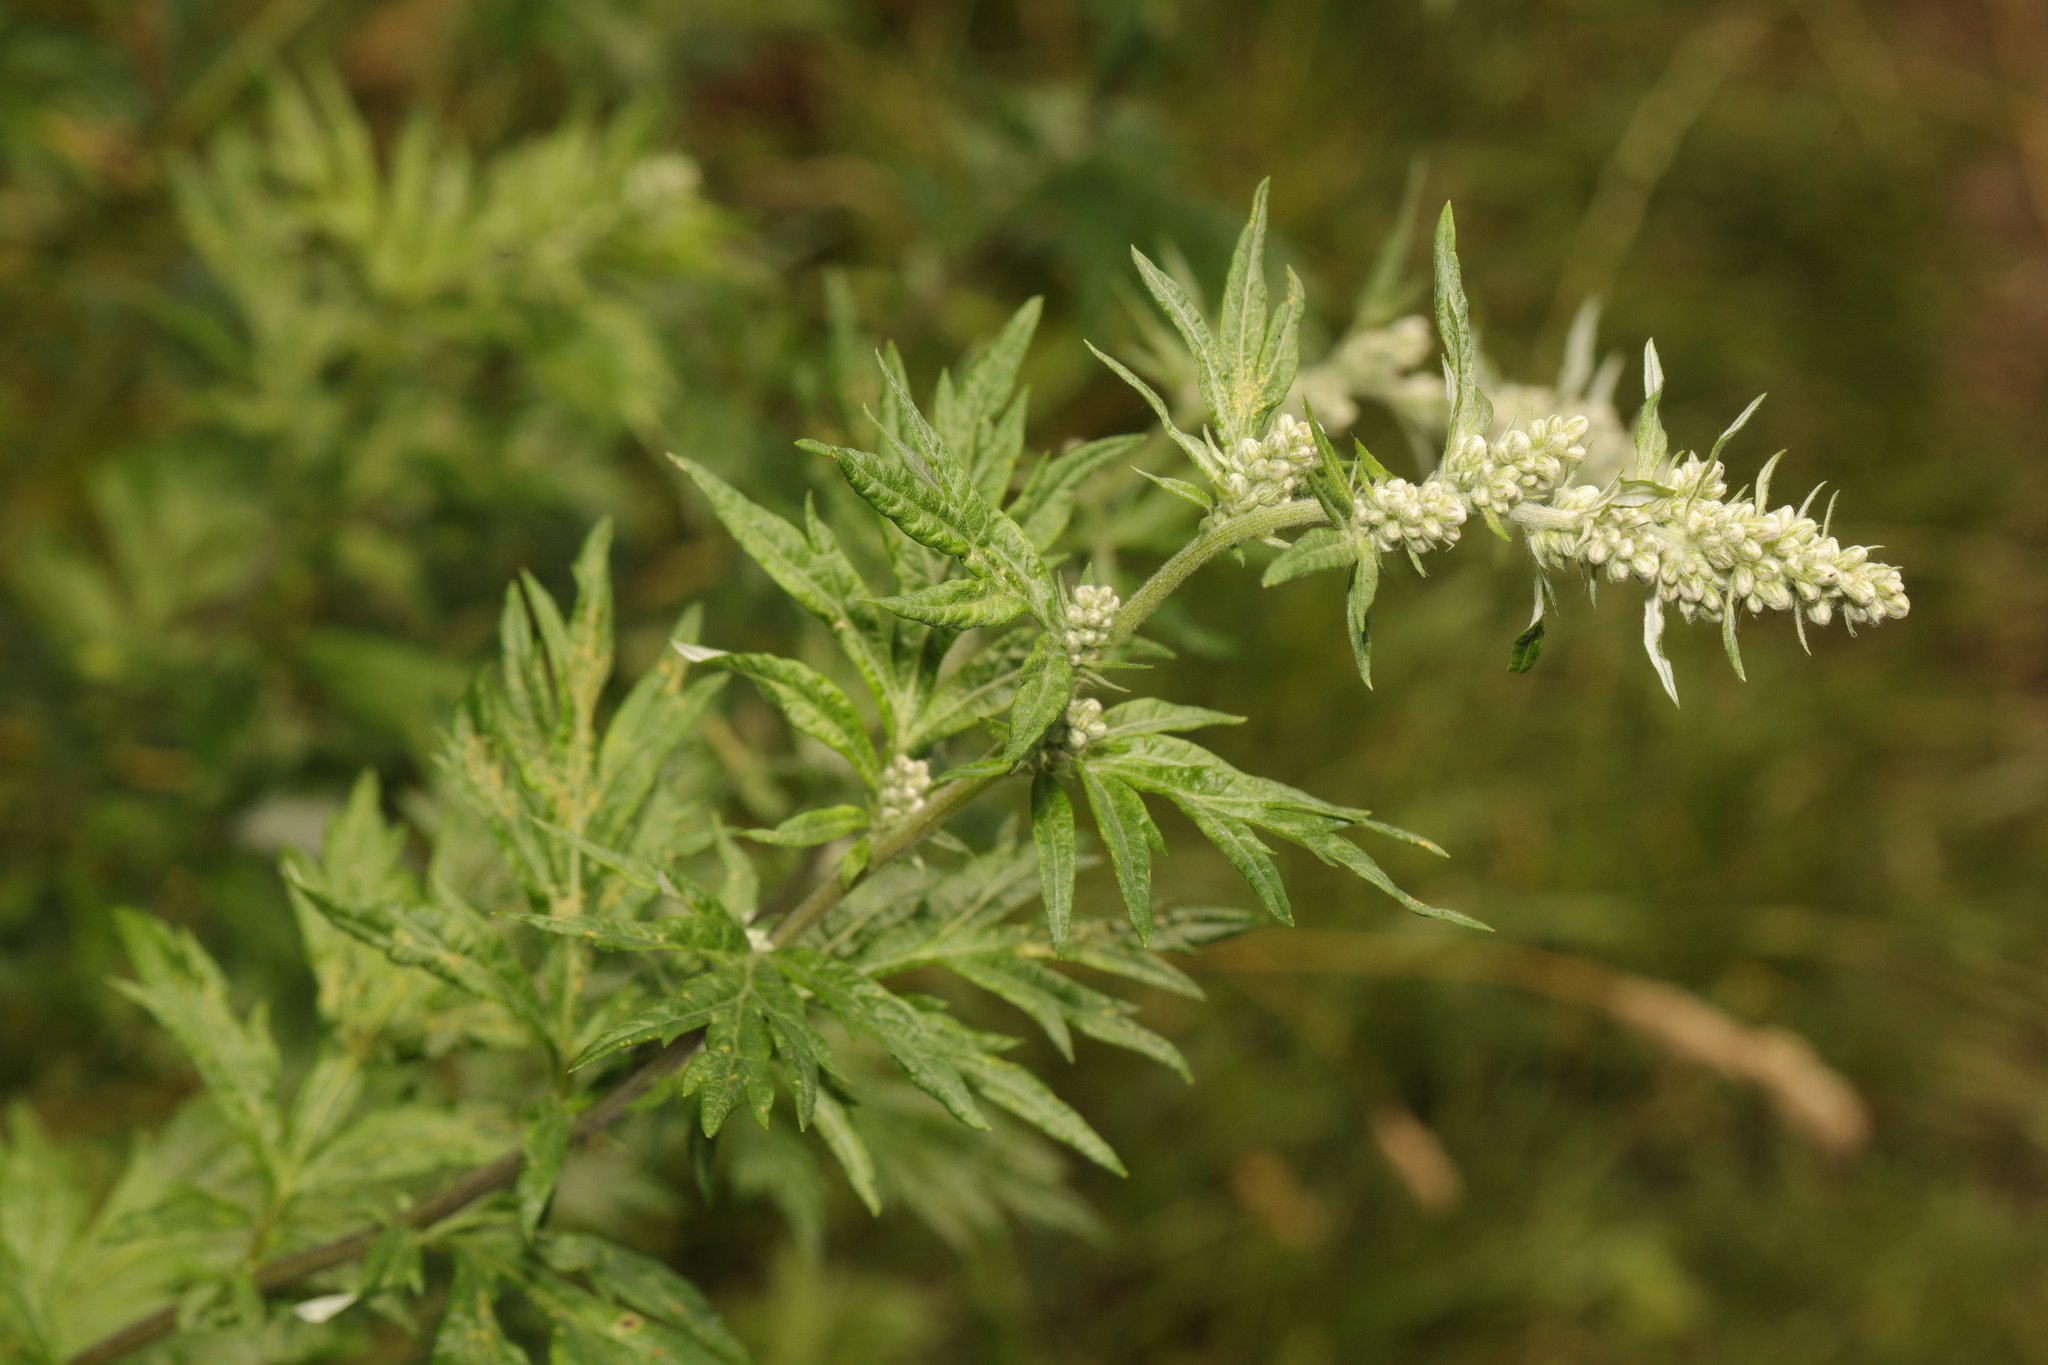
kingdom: Plantae
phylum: Tracheophyta
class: Magnoliopsida
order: Asterales
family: Asteraceae
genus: Artemisia
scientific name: Artemisia vulgaris
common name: Mugwort
